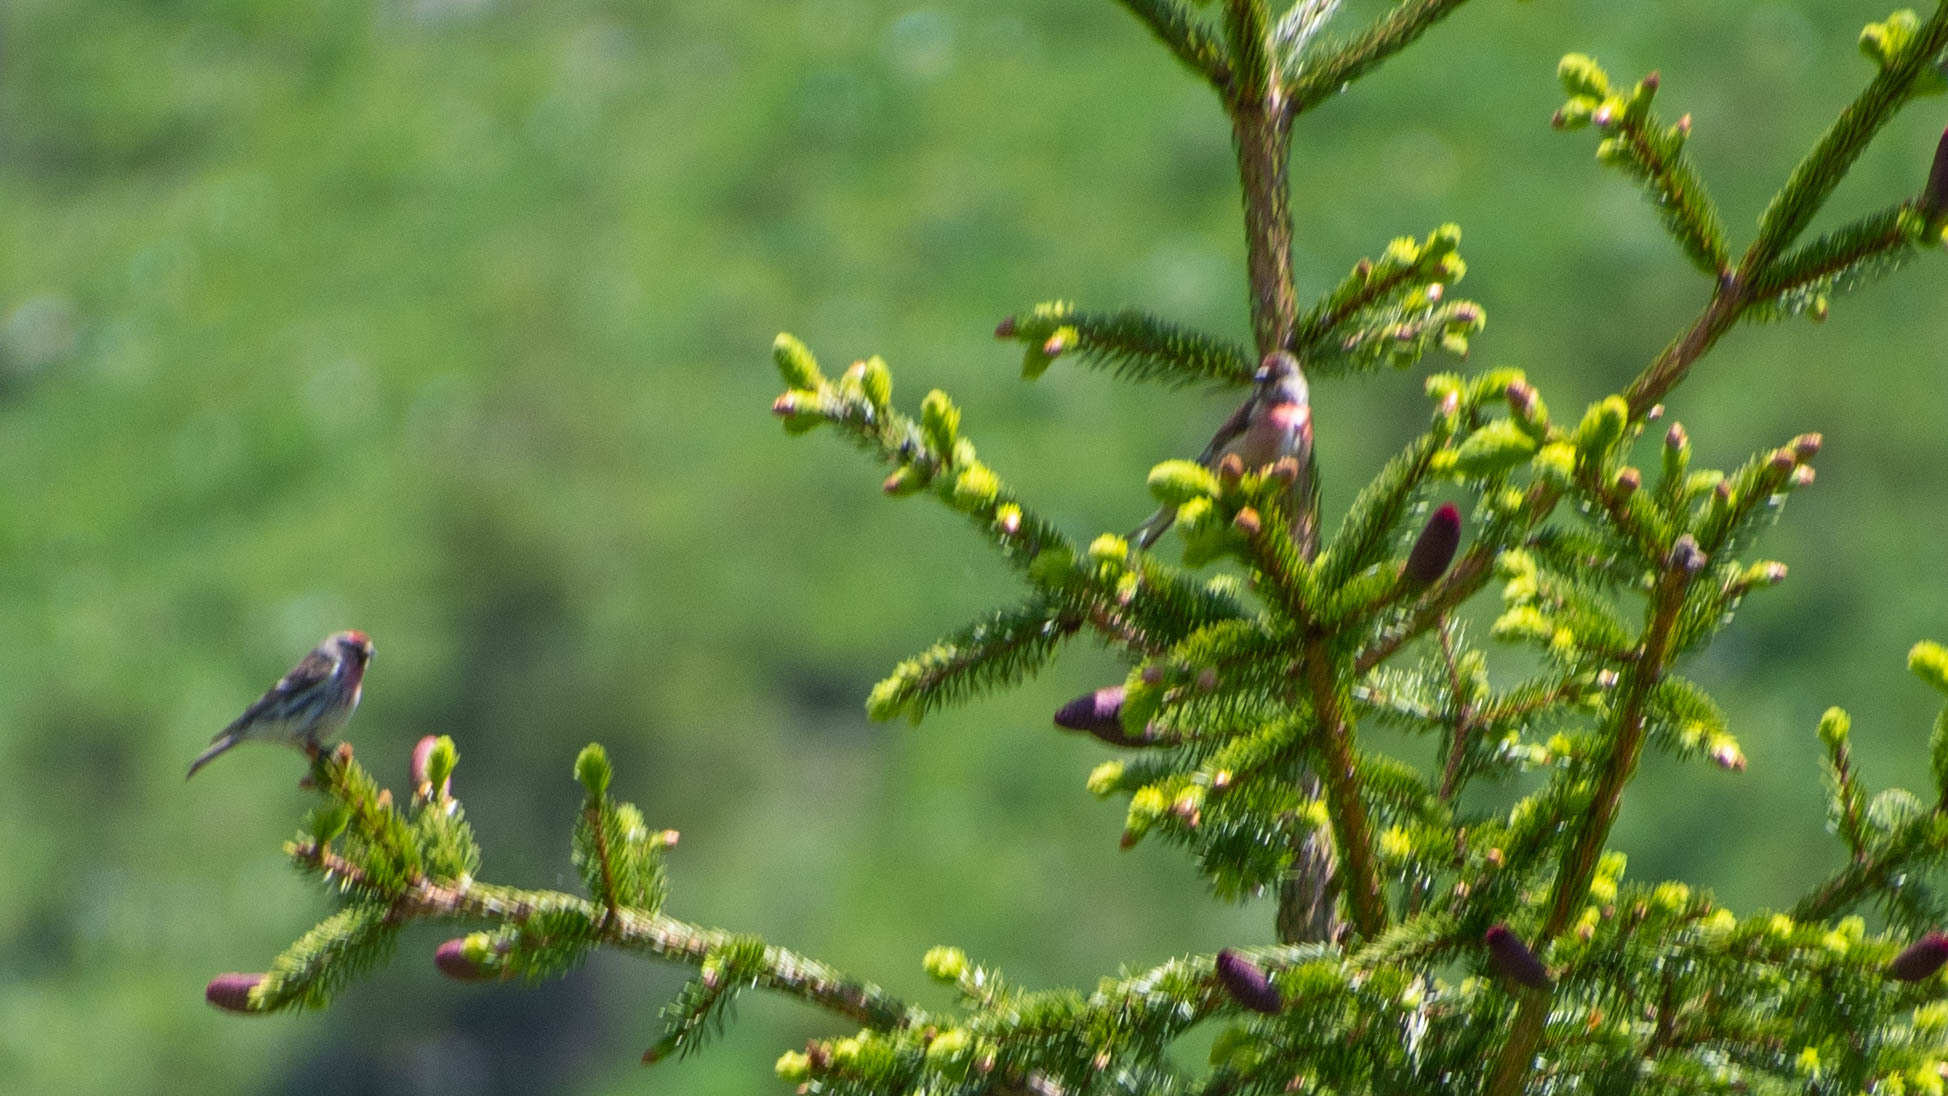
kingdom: Animalia
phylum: Chordata
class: Aves
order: Passeriformes
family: Fringillidae
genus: Acanthis
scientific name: Acanthis flammea
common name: Common redpoll
